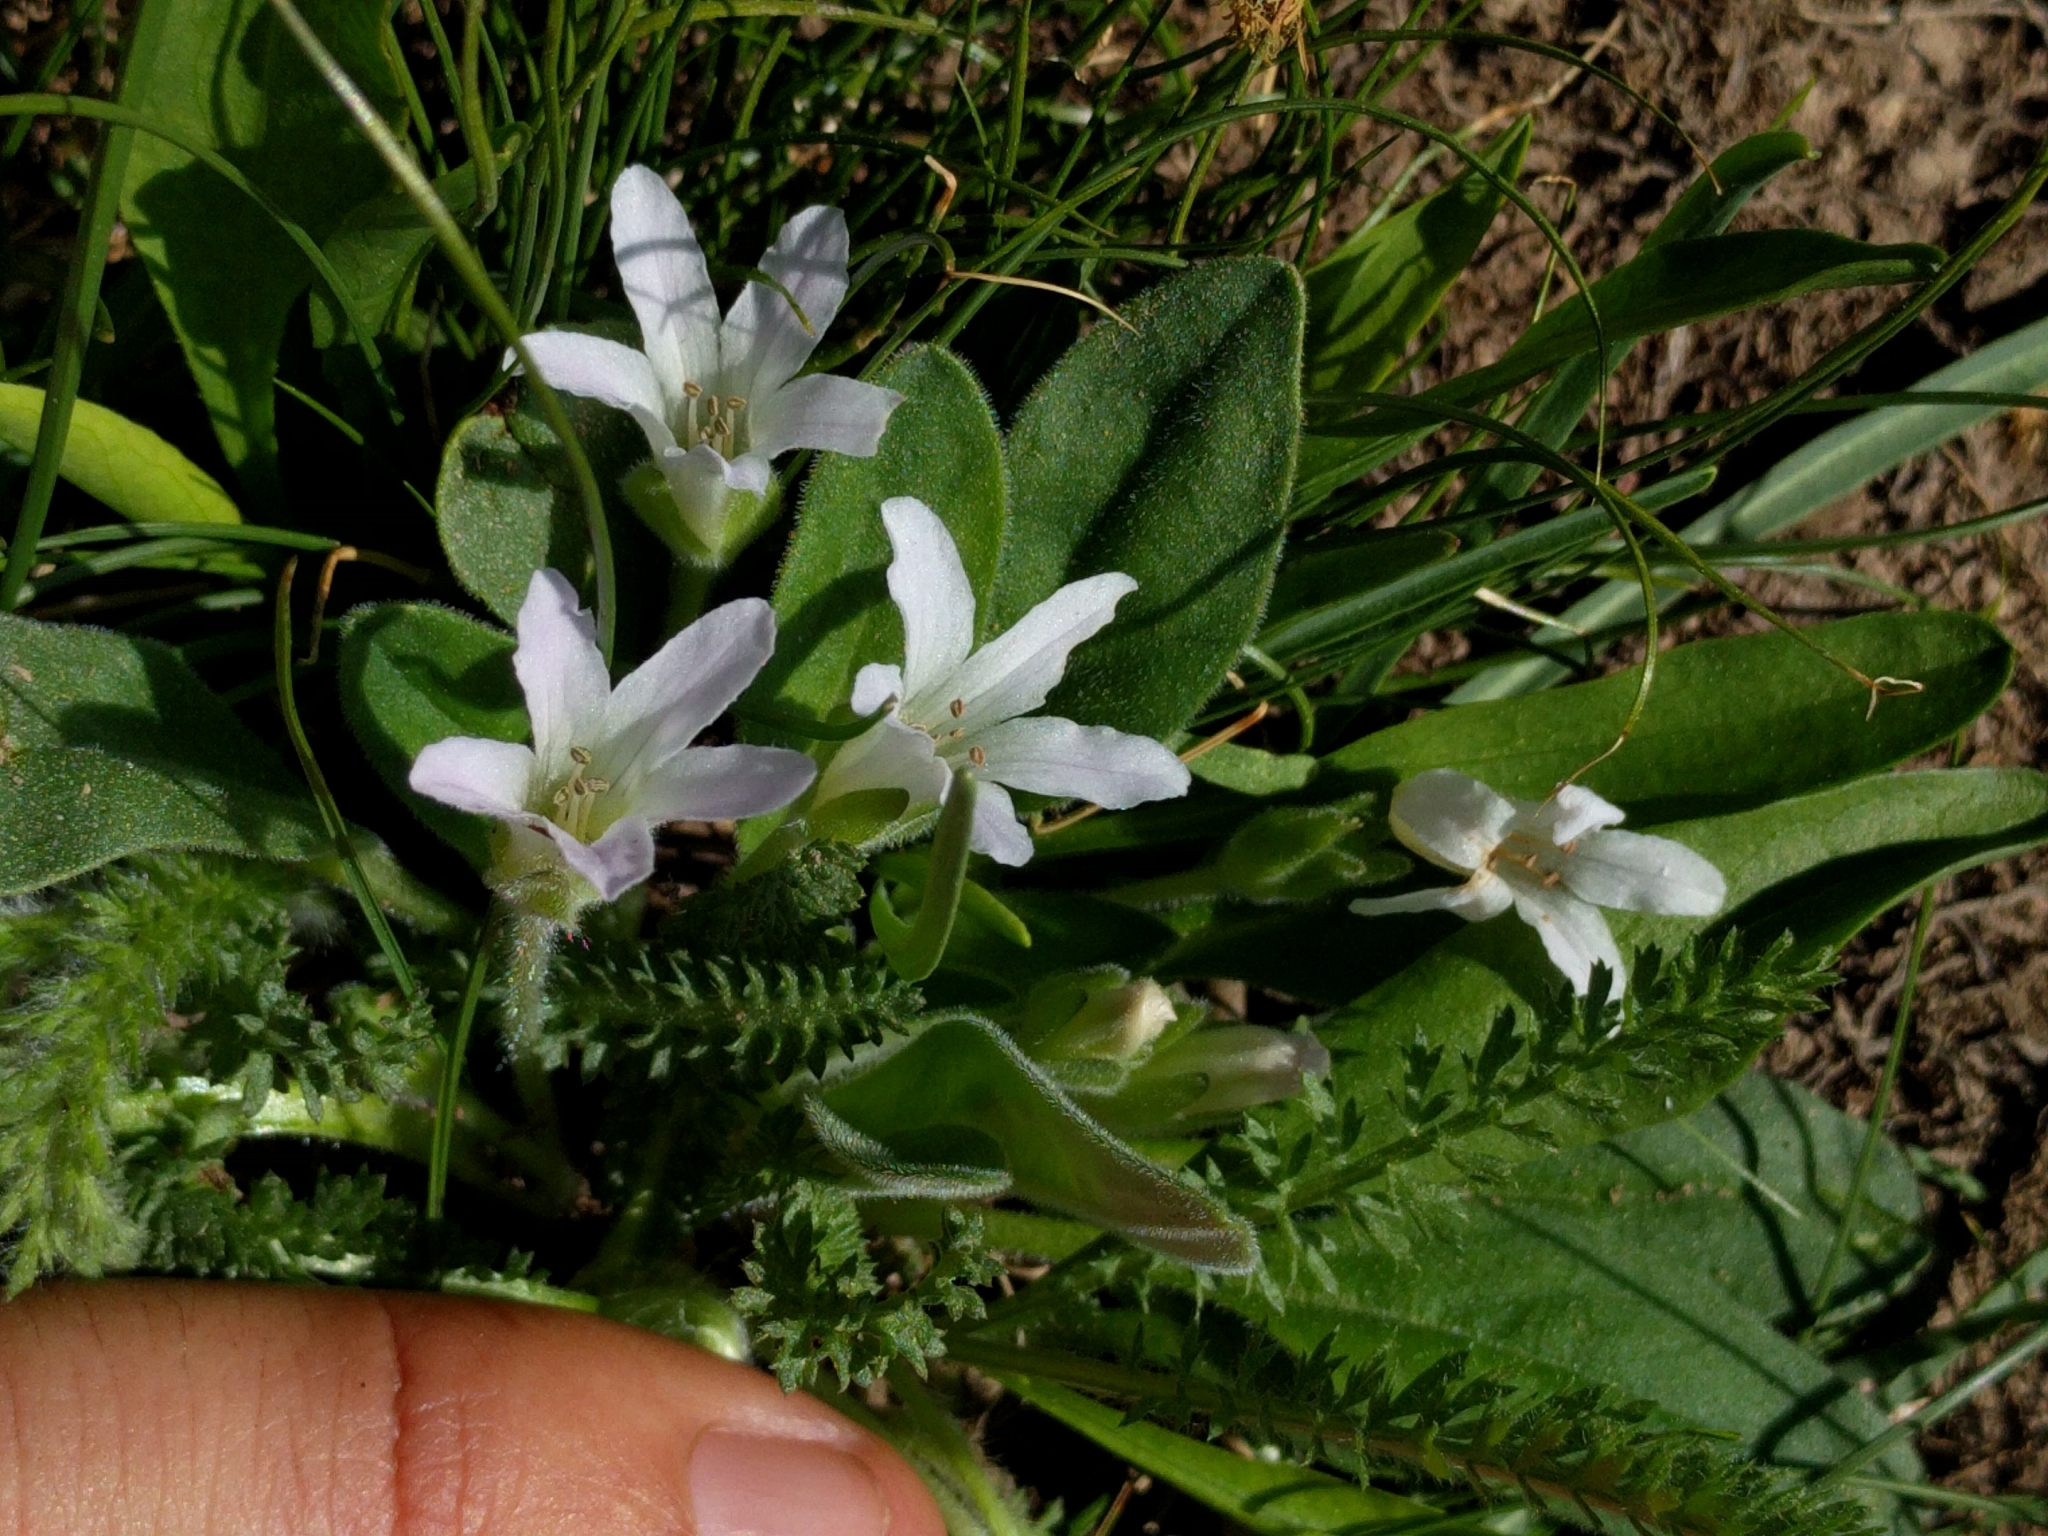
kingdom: Plantae
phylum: Tracheophyta
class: Magnoliopsida
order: Boraginales
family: Hydrophyllaceae
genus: Hesperochiron
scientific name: Hesperochiron californicus
